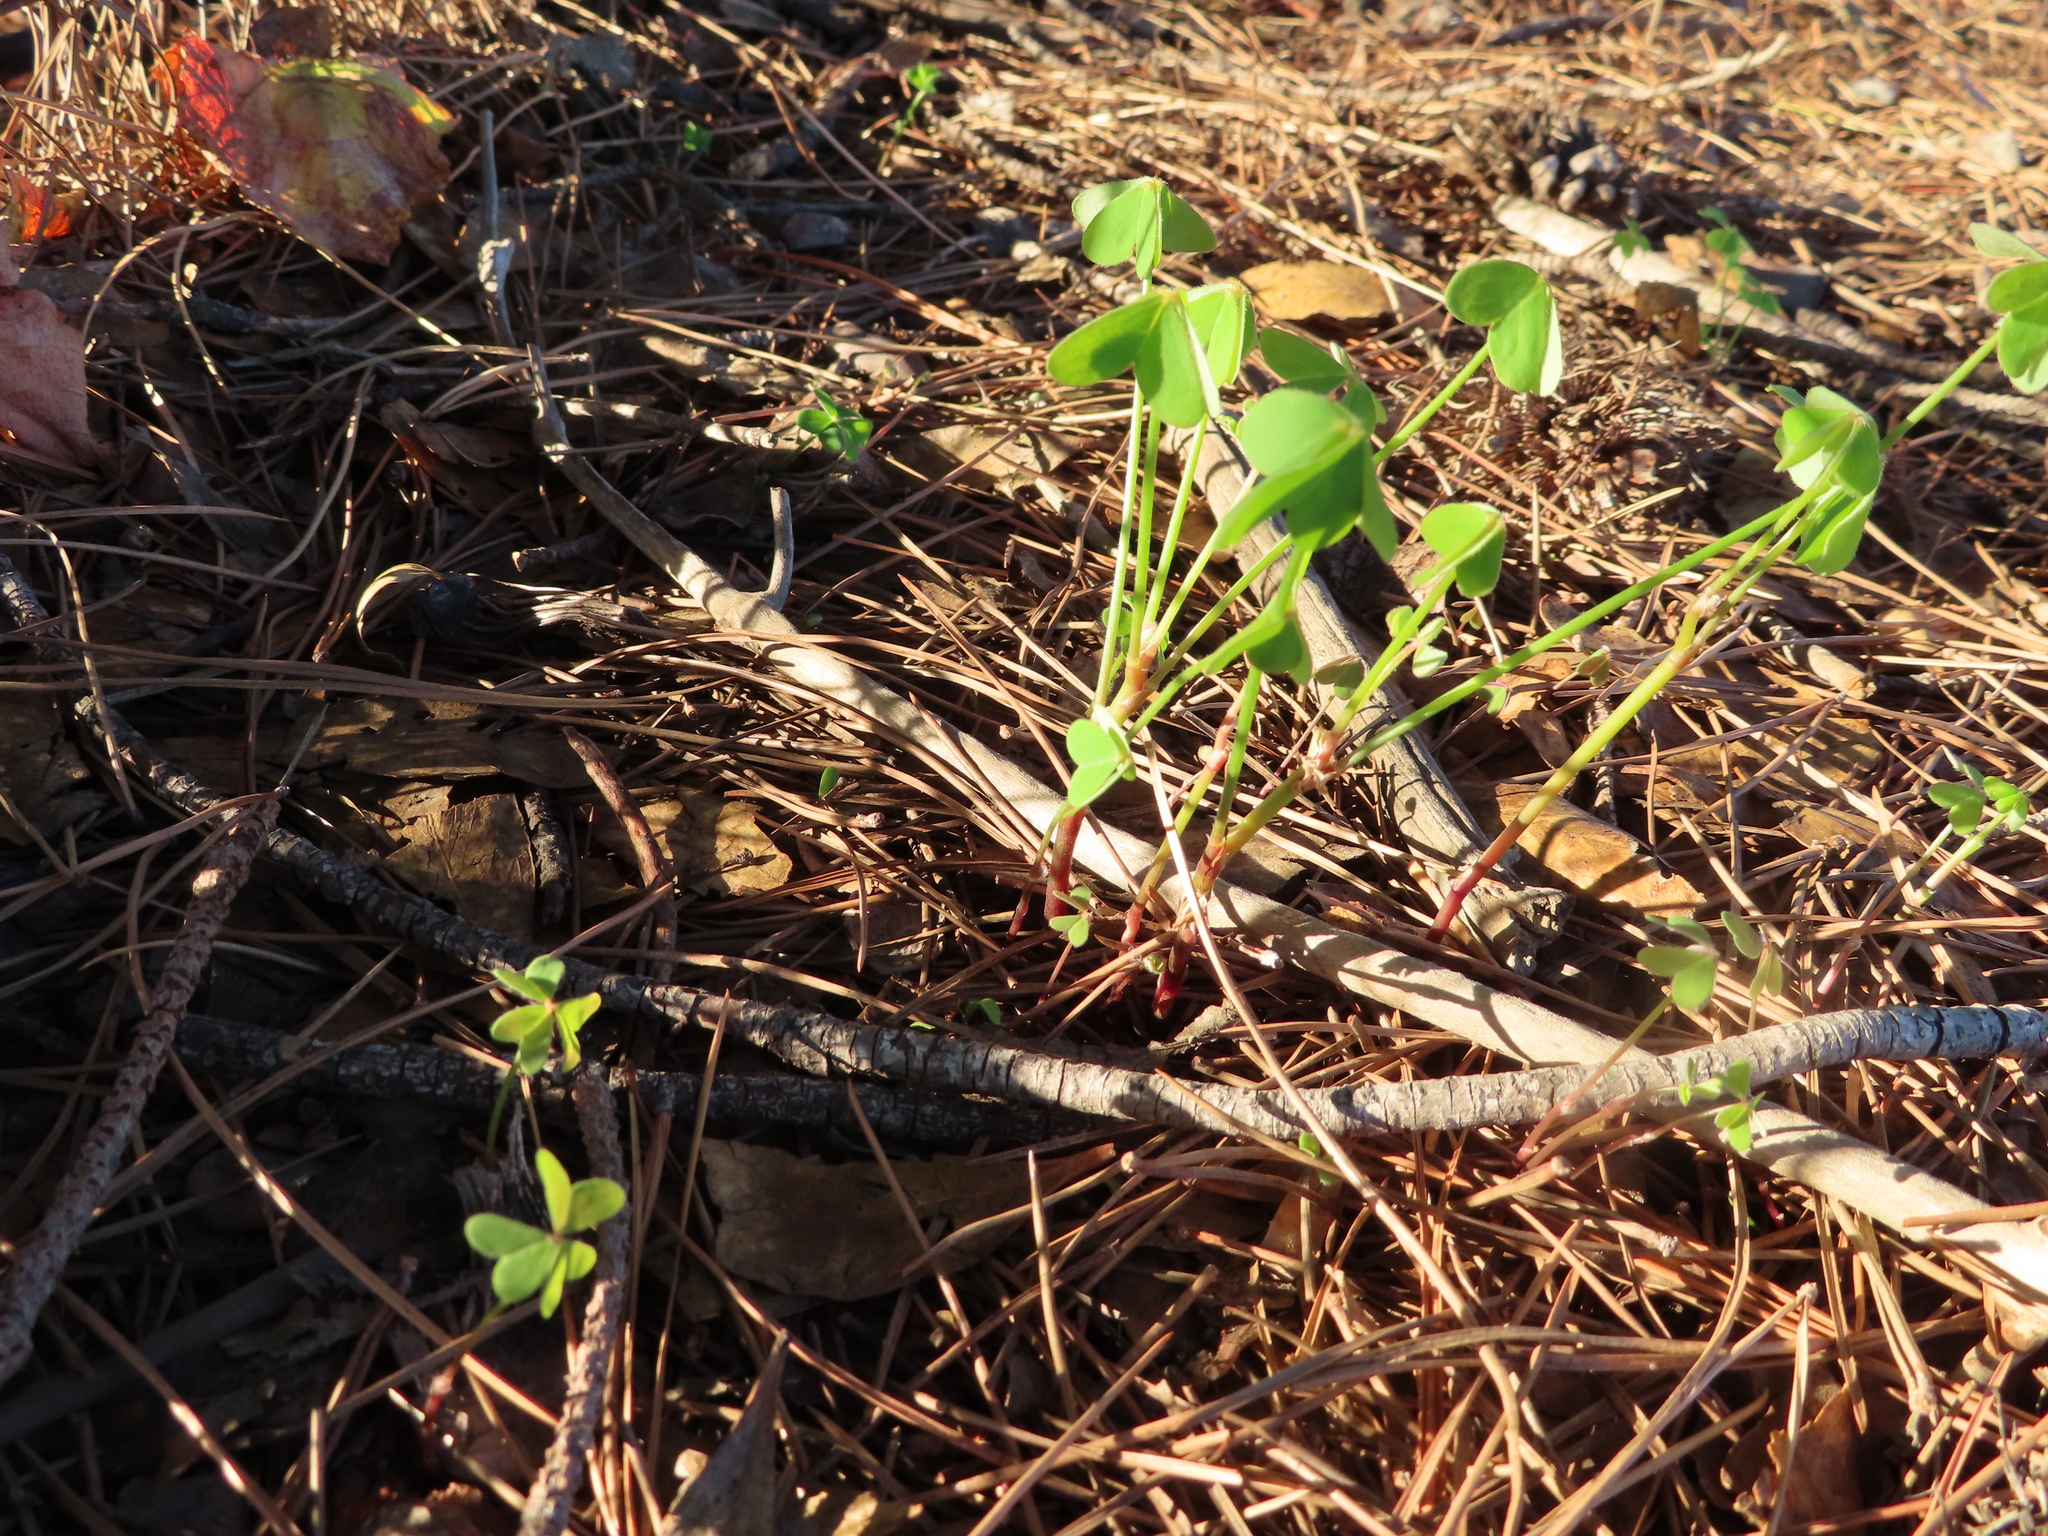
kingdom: Plantae
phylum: Tracheophyta
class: Magnoliopsida
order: Oxalidales
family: Oxalidaceae
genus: Oxalis
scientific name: Oxalis pes-caprae
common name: Bermuda-buttercup
